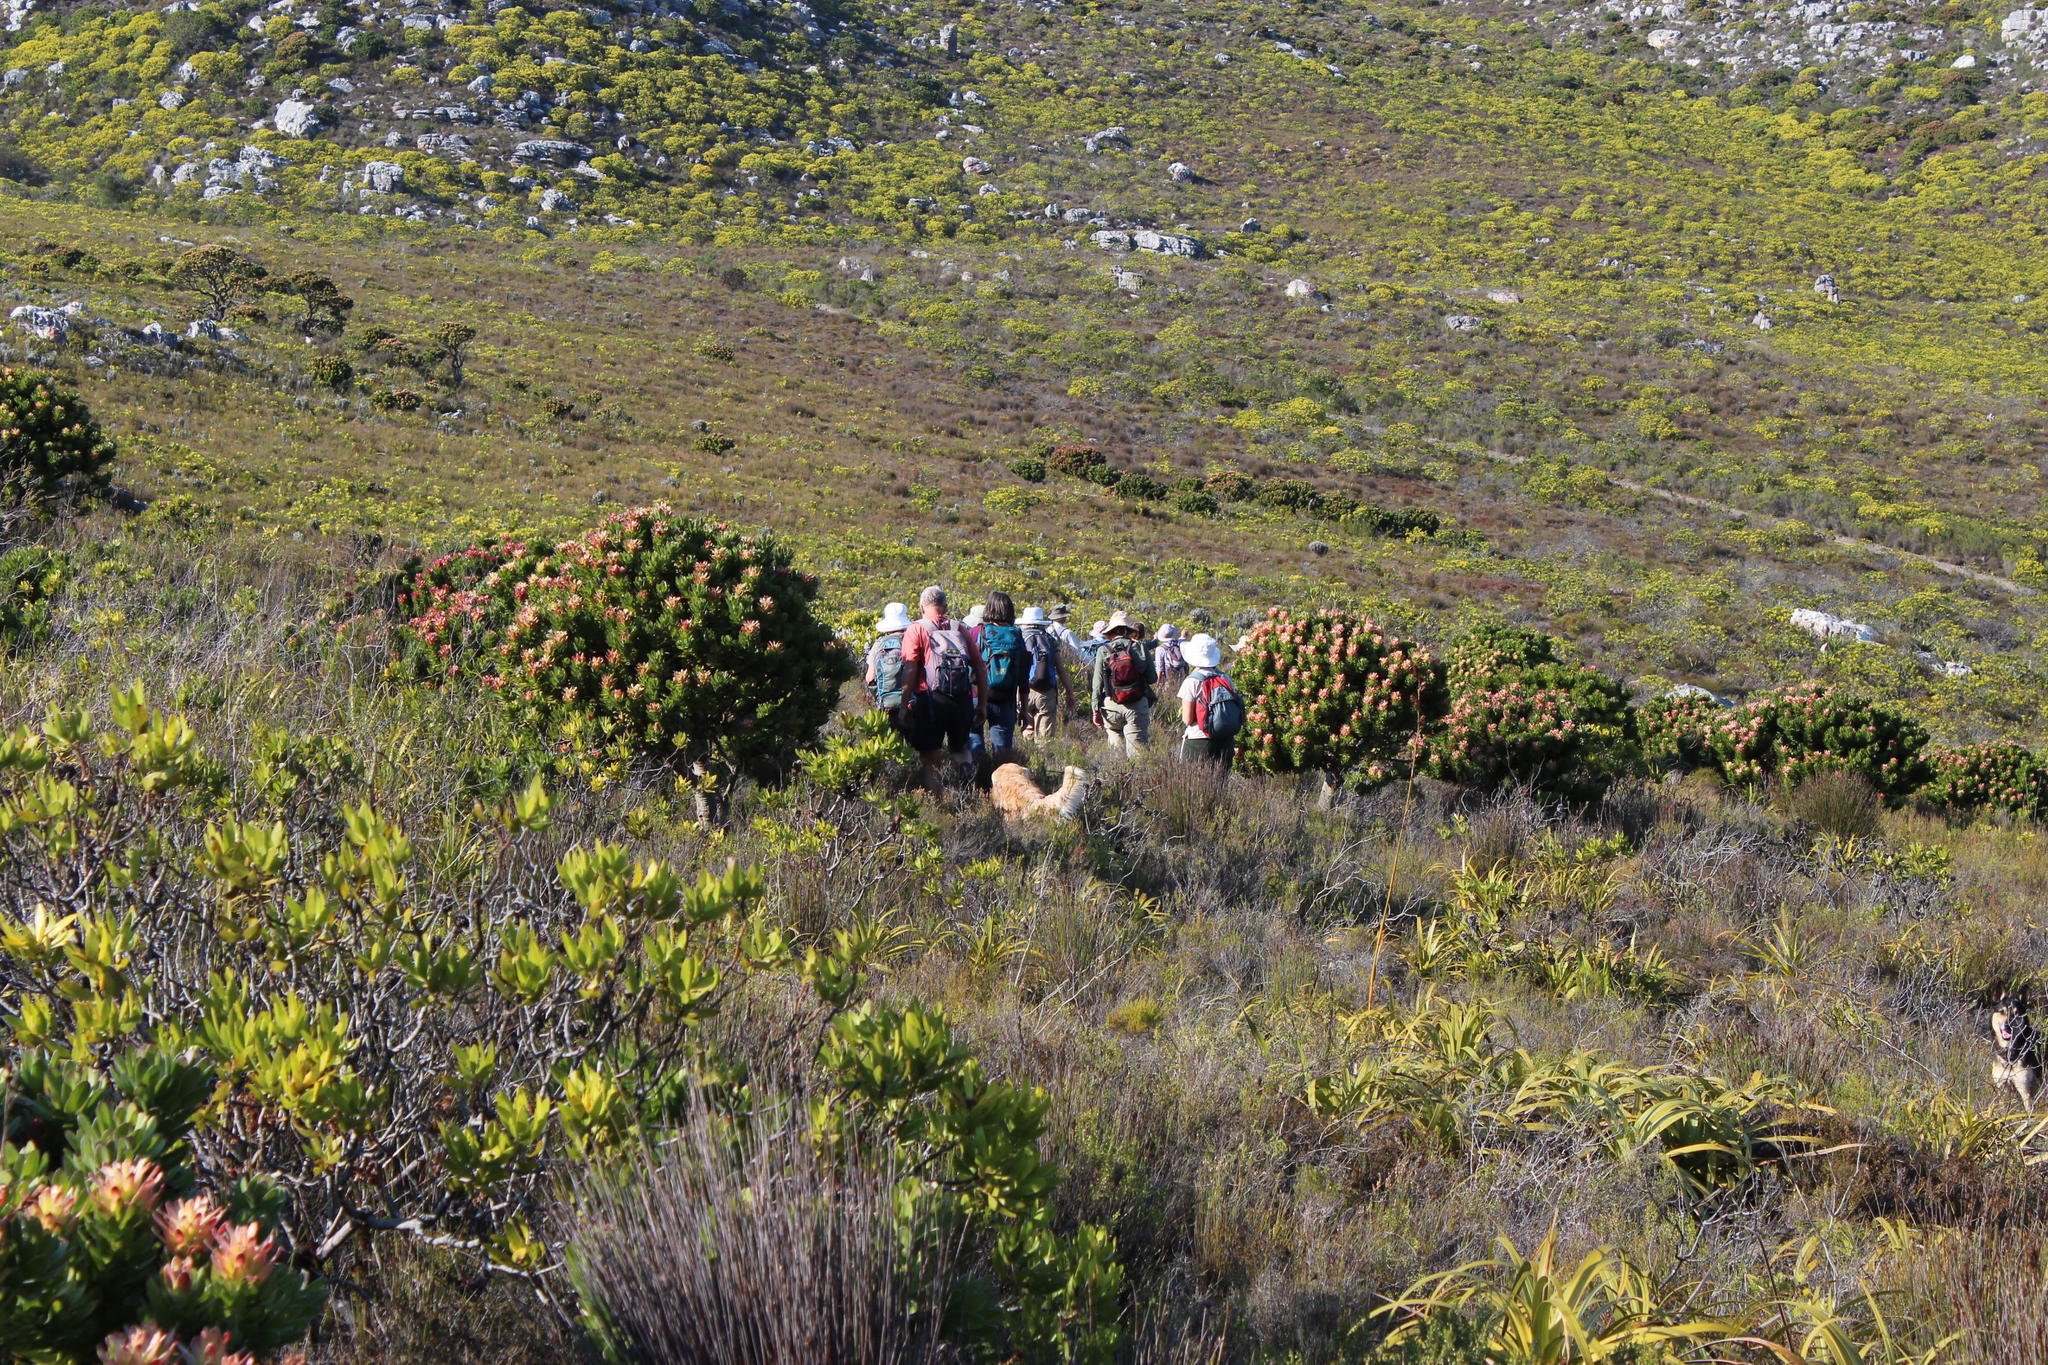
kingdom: Plantae
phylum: Tracheophyta
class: Magnoliopsida
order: Proteales
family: Proteaceae
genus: Mimetes
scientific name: Mimetes fimbriifolius
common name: Fringed bottlebrush
